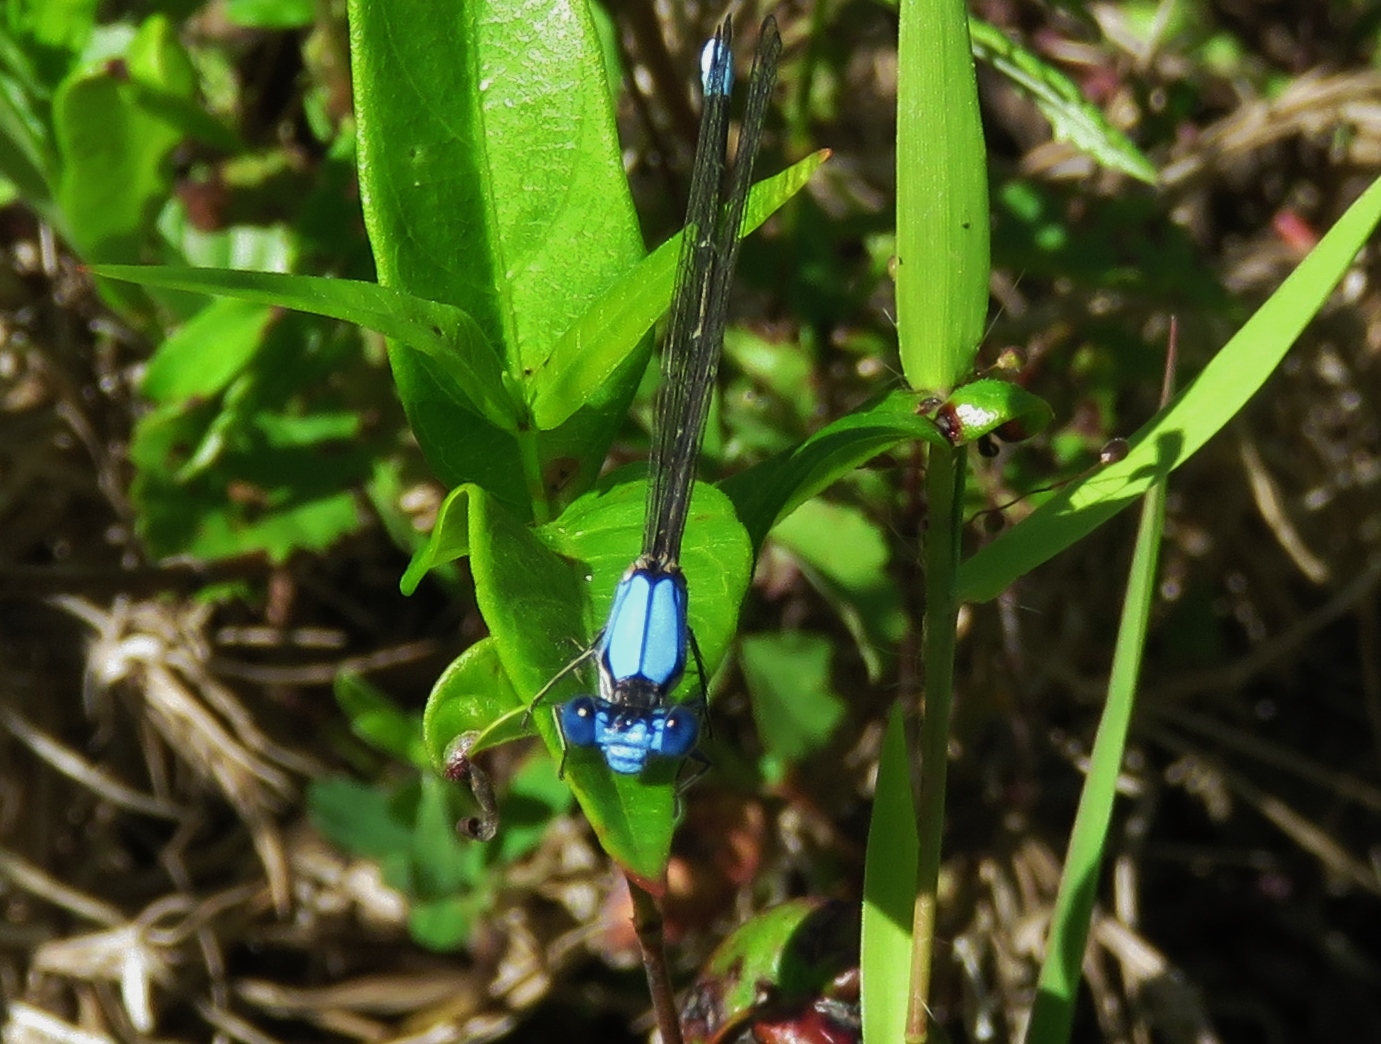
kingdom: Animalia
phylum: Arthropoda
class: Insecta
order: Odonata
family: Coenagrionidae
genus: Argia
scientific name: Argia apicalis
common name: Blue-fronted dancer
